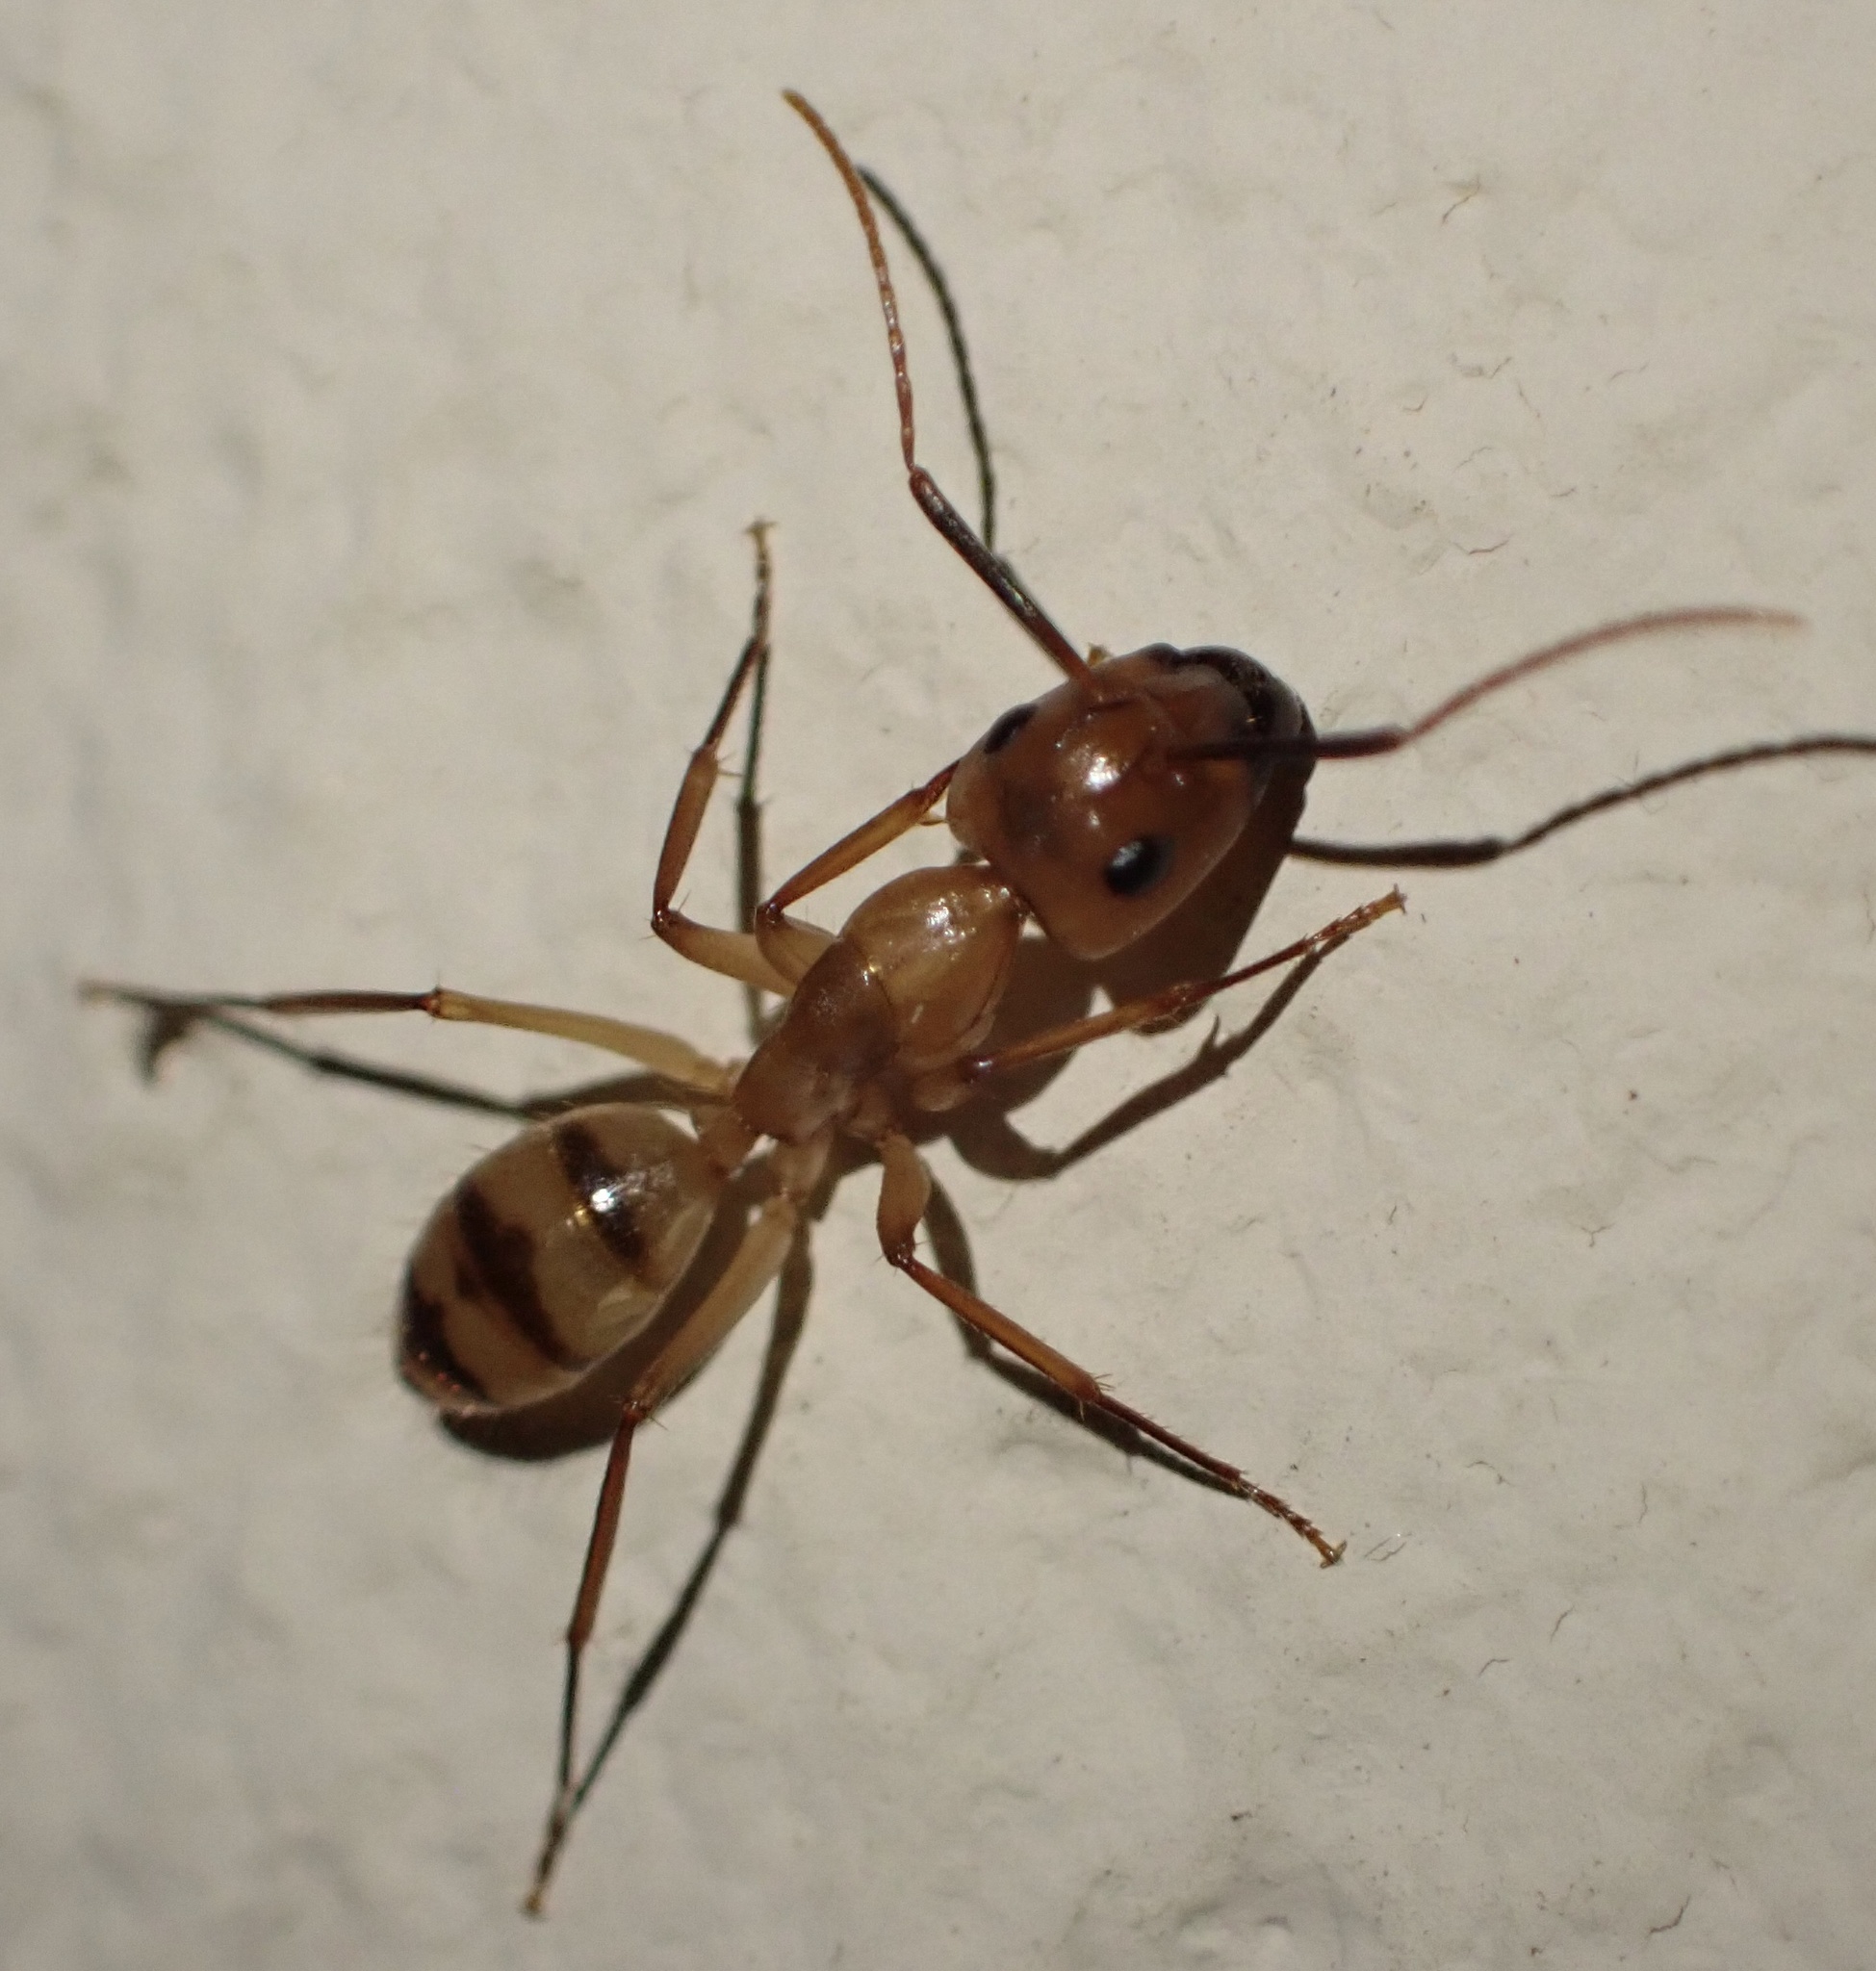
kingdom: Animalia
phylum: Arthropoda
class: Insecta
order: Hymenoptera
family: Formicidae
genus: Camponotus
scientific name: Camponotus
